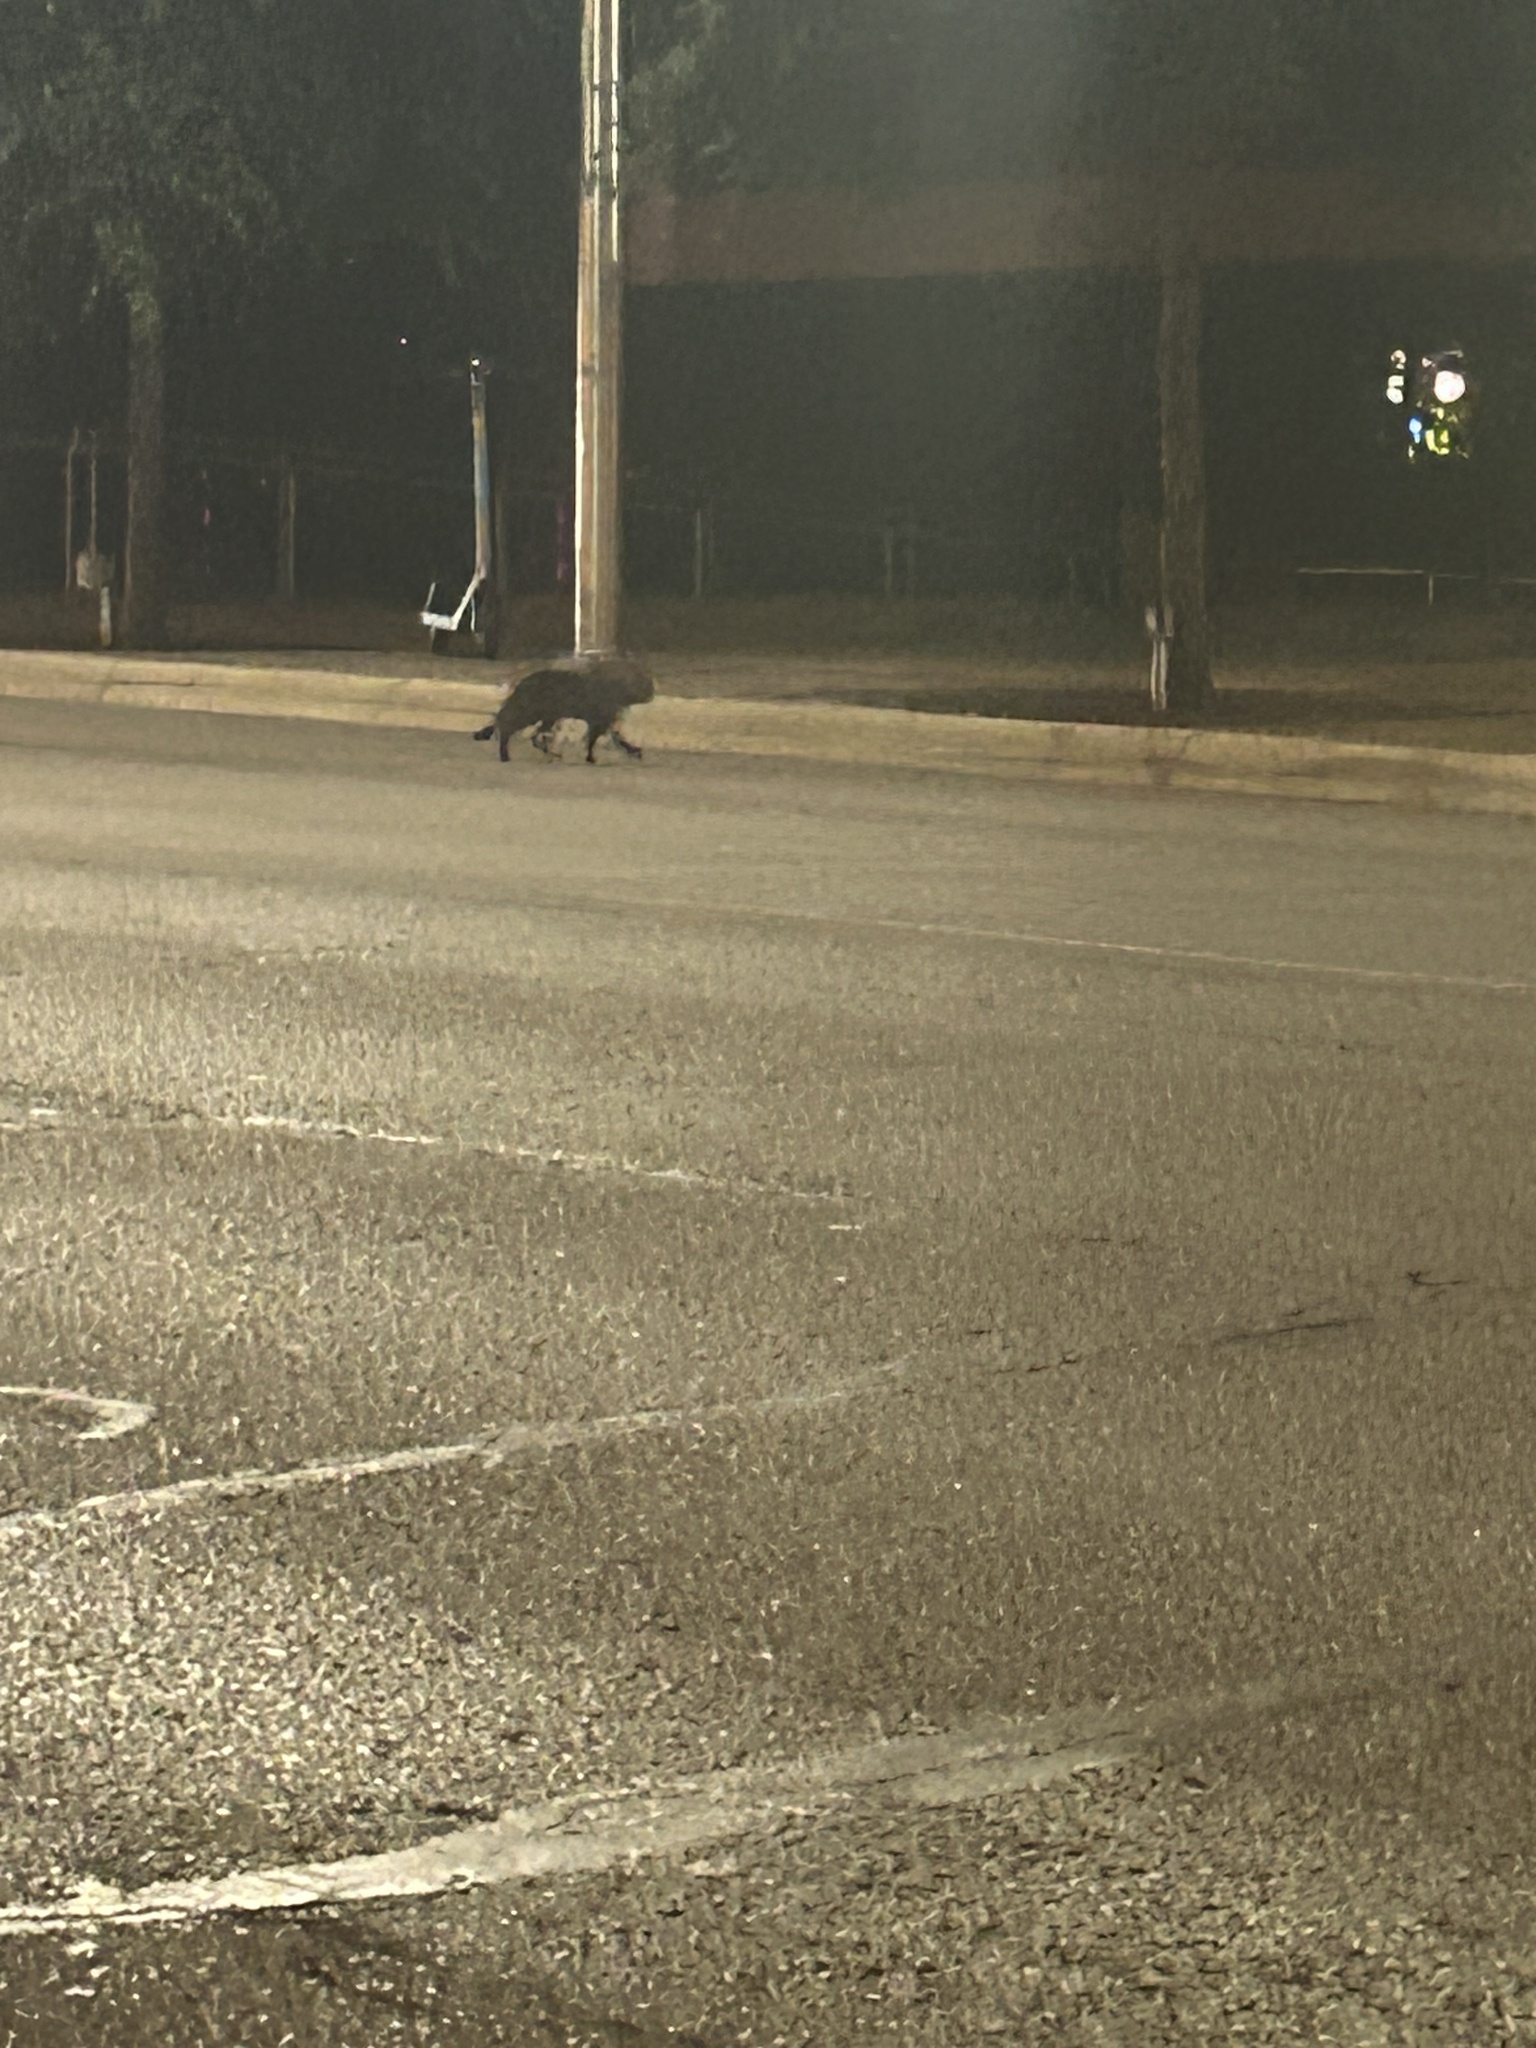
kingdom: Animalia
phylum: Chordata
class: Mammalia
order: Carnivora
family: Felidae
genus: Felis
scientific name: Felis catus
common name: Domestic cat
